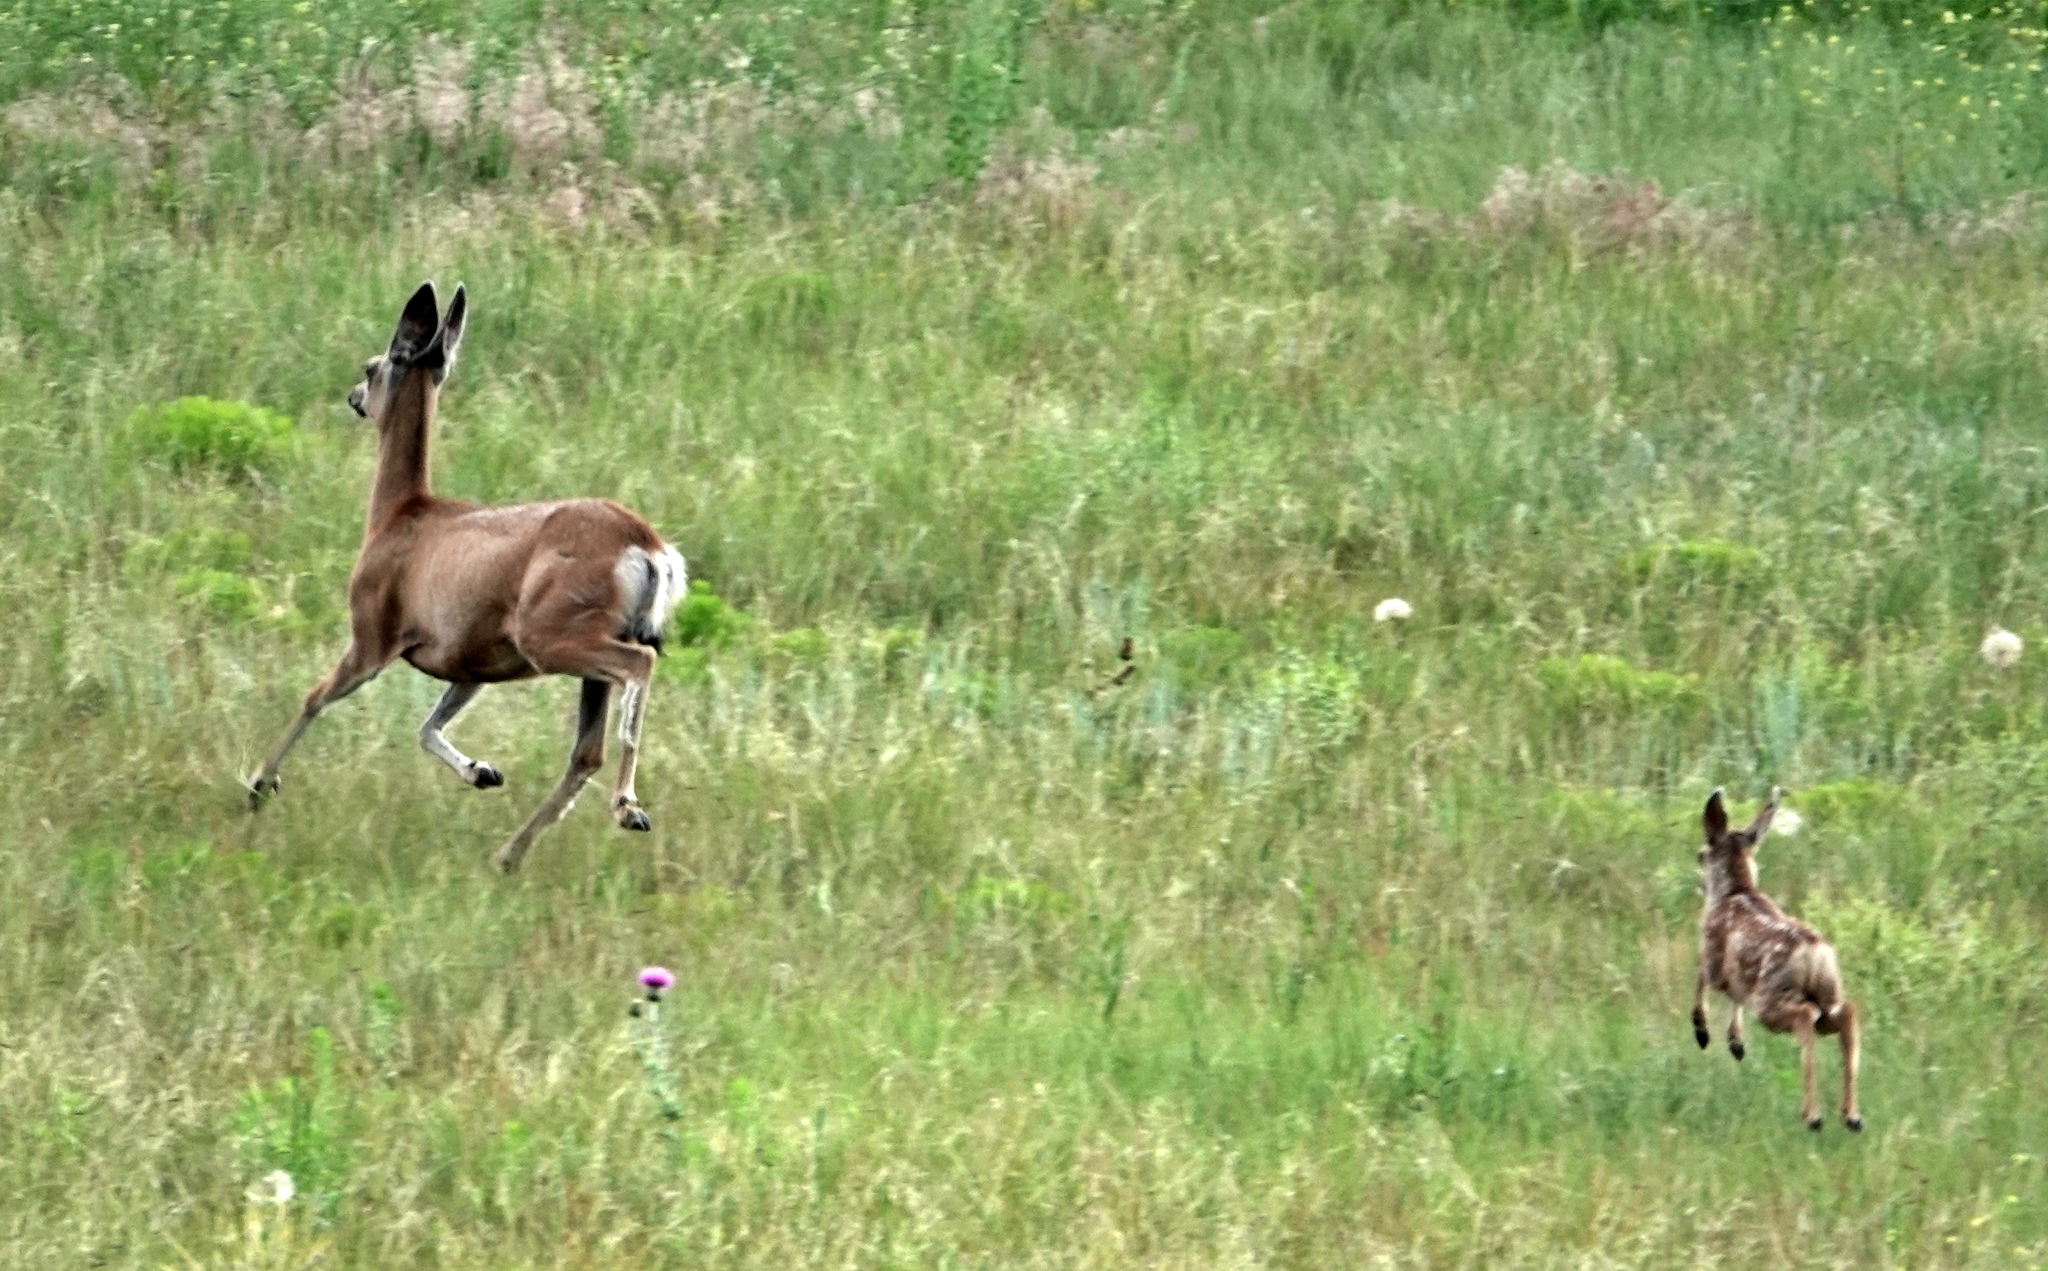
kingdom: Animalia
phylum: Chordata
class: Mammalia
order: Artiodactyla
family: Cervidae
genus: Odocoileus
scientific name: Odocoileus hemionus
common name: Mule deer
